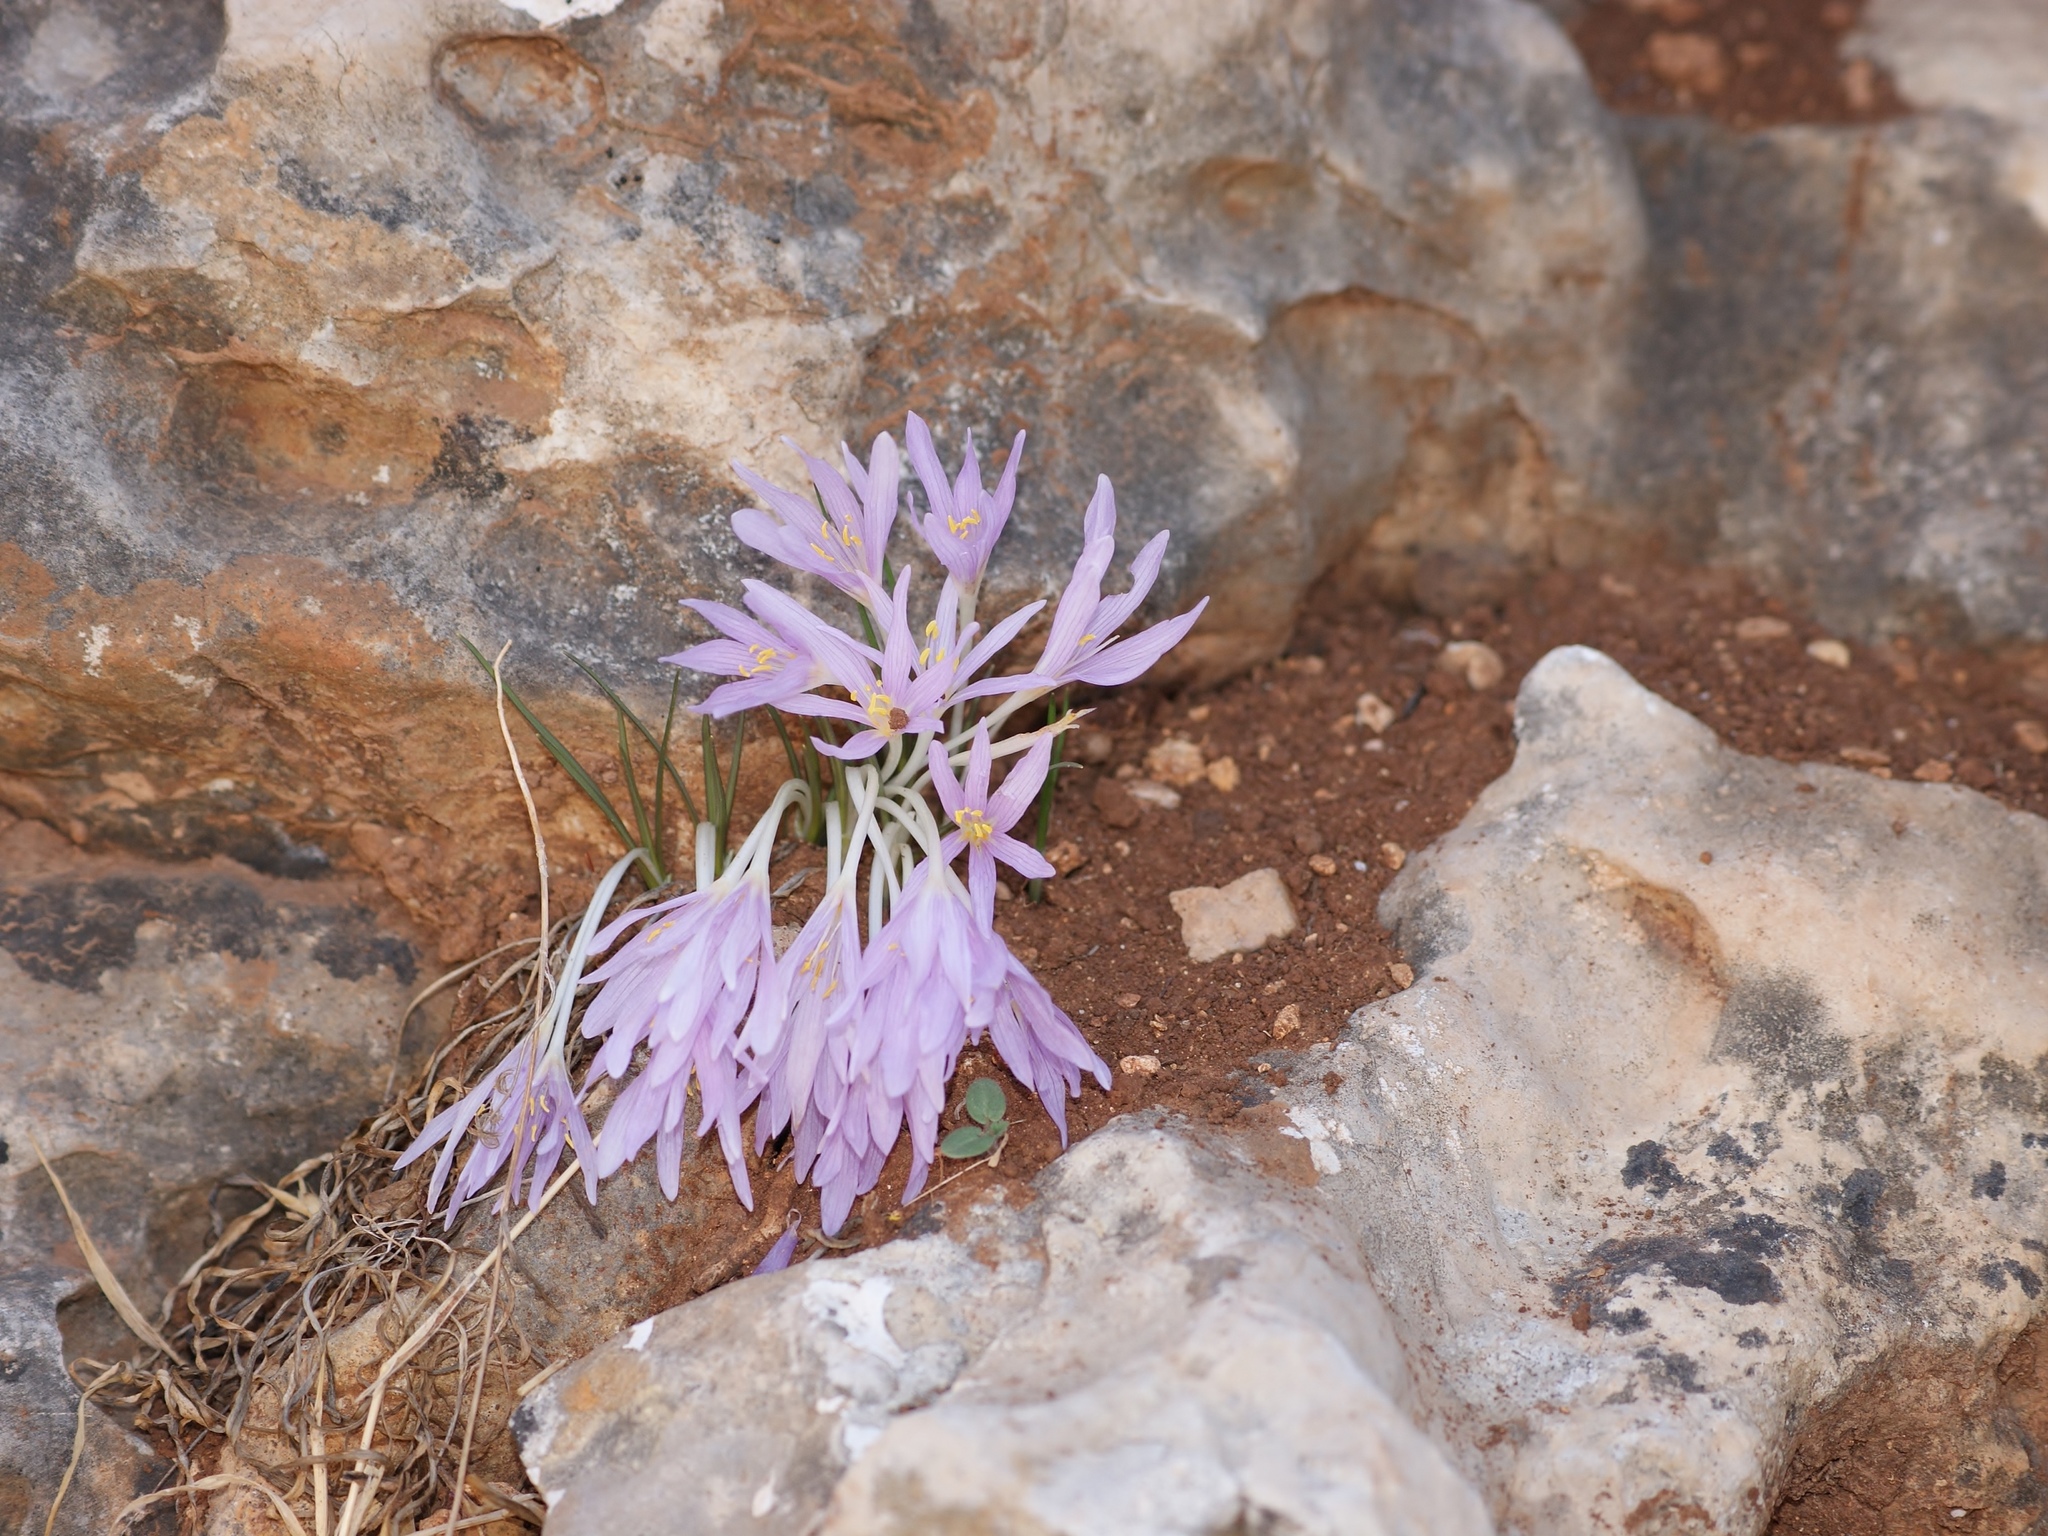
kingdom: Plantae
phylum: Tracheophyta
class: Liliopsida
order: Liliales
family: Colchicaceae
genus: Colchicum
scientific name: Colchicum stevenii
